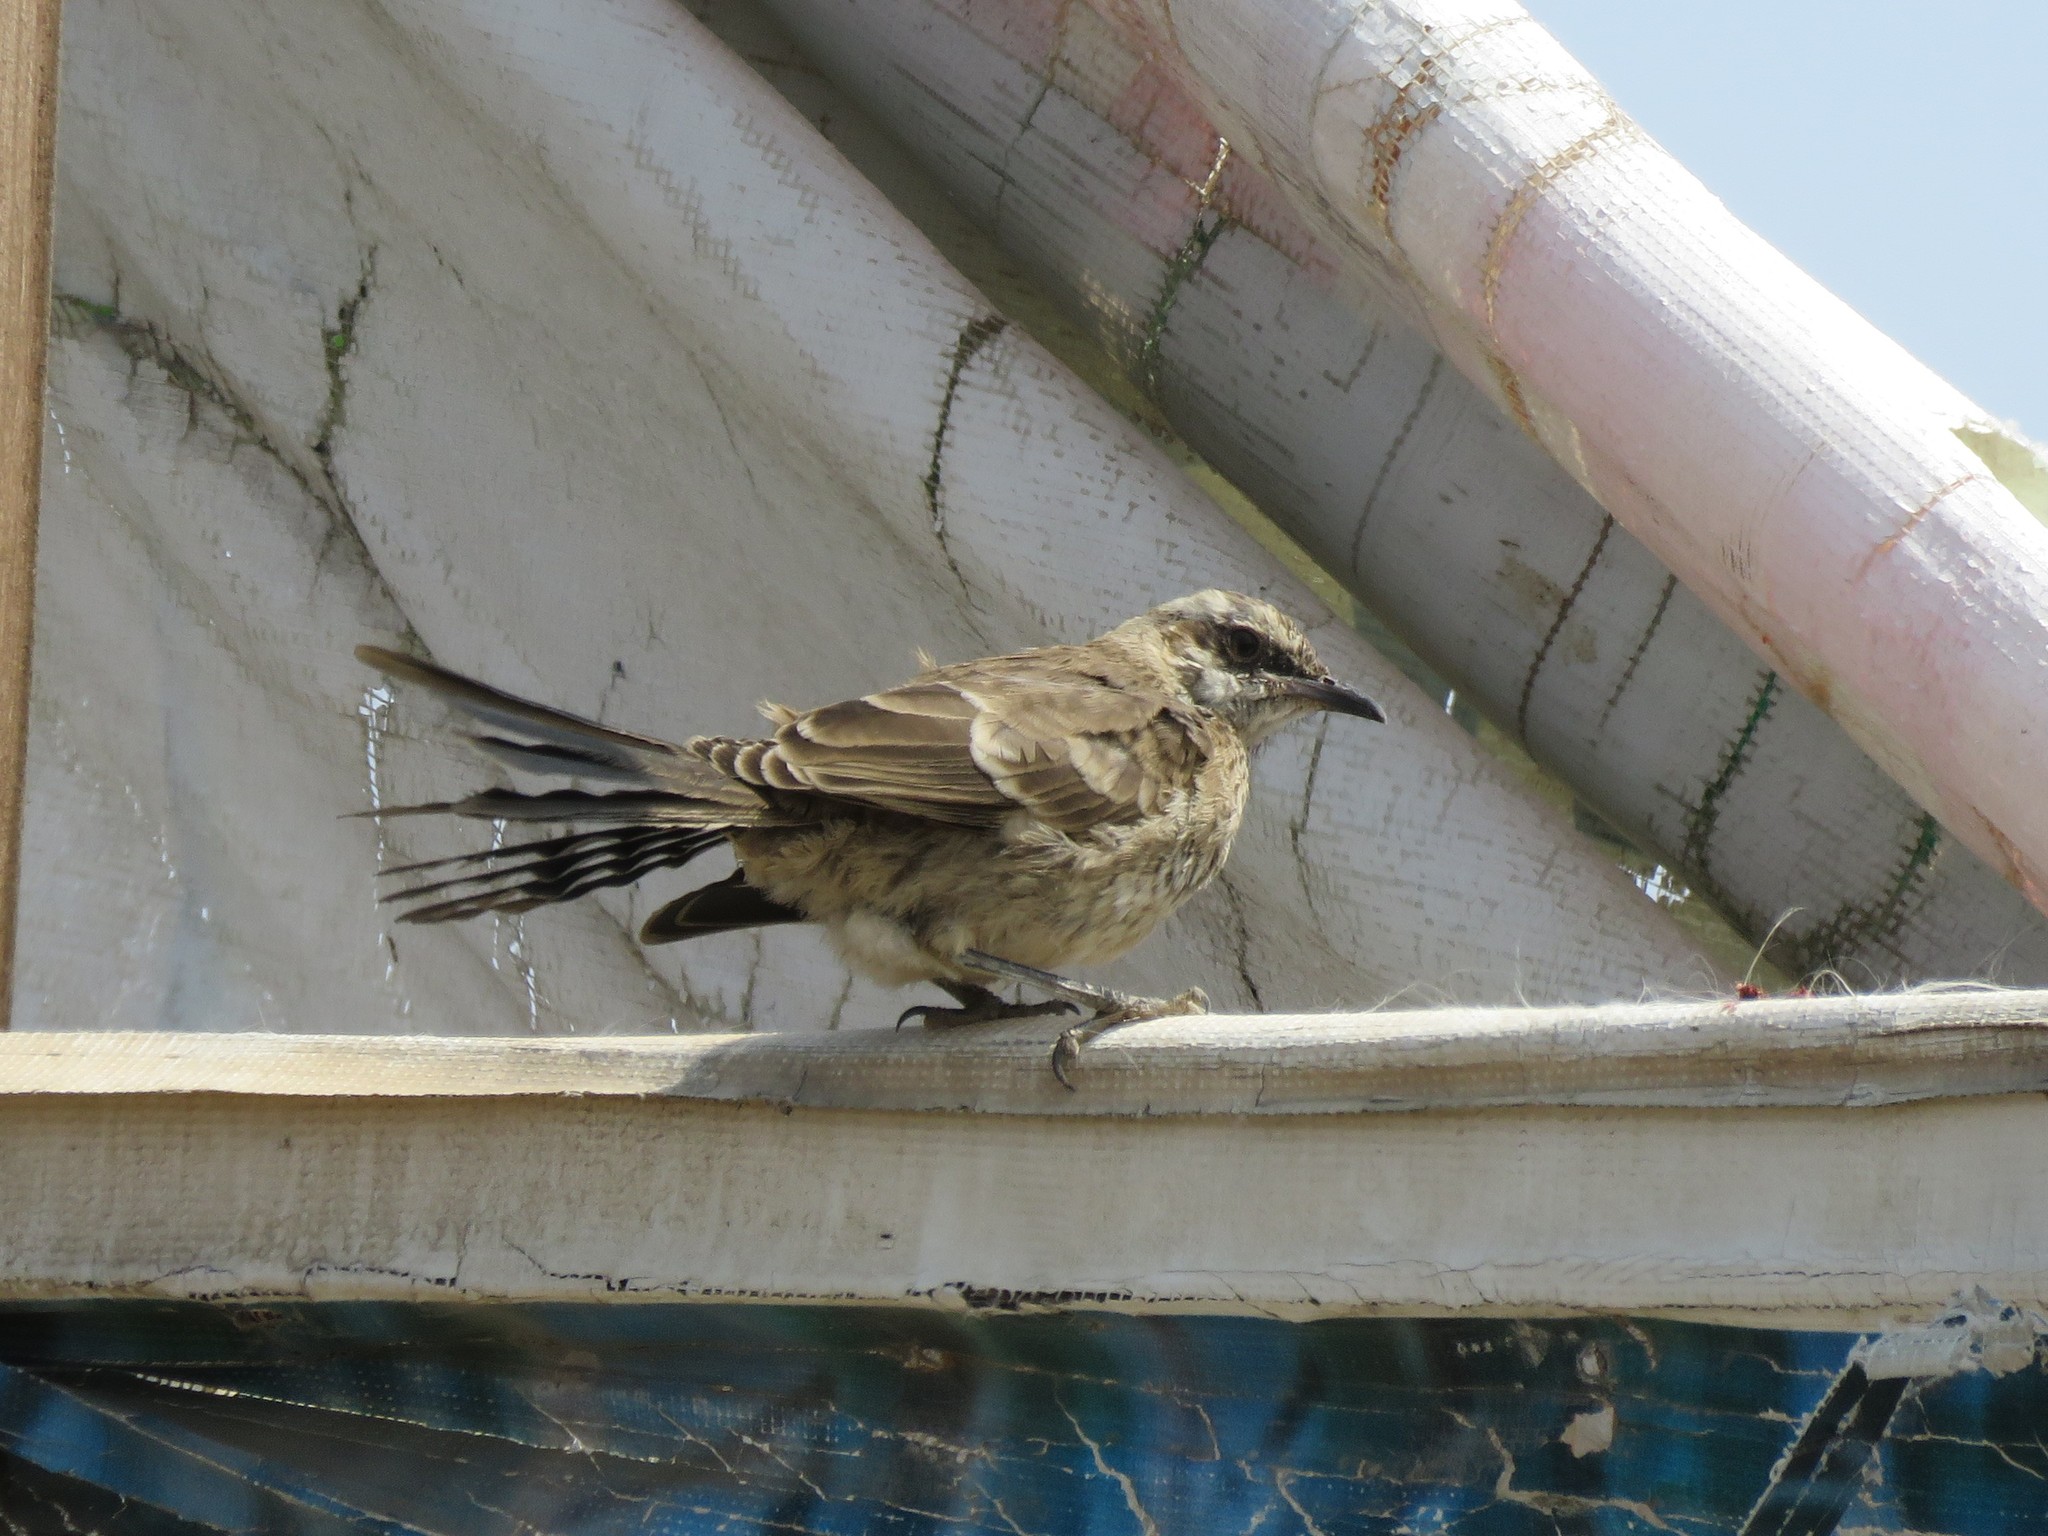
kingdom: Animalia
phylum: Chordata
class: Aves
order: Passeriformes
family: Mimidae
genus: Mimus
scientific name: Mimus longicaudatus
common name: Long-tailed mockingbird
